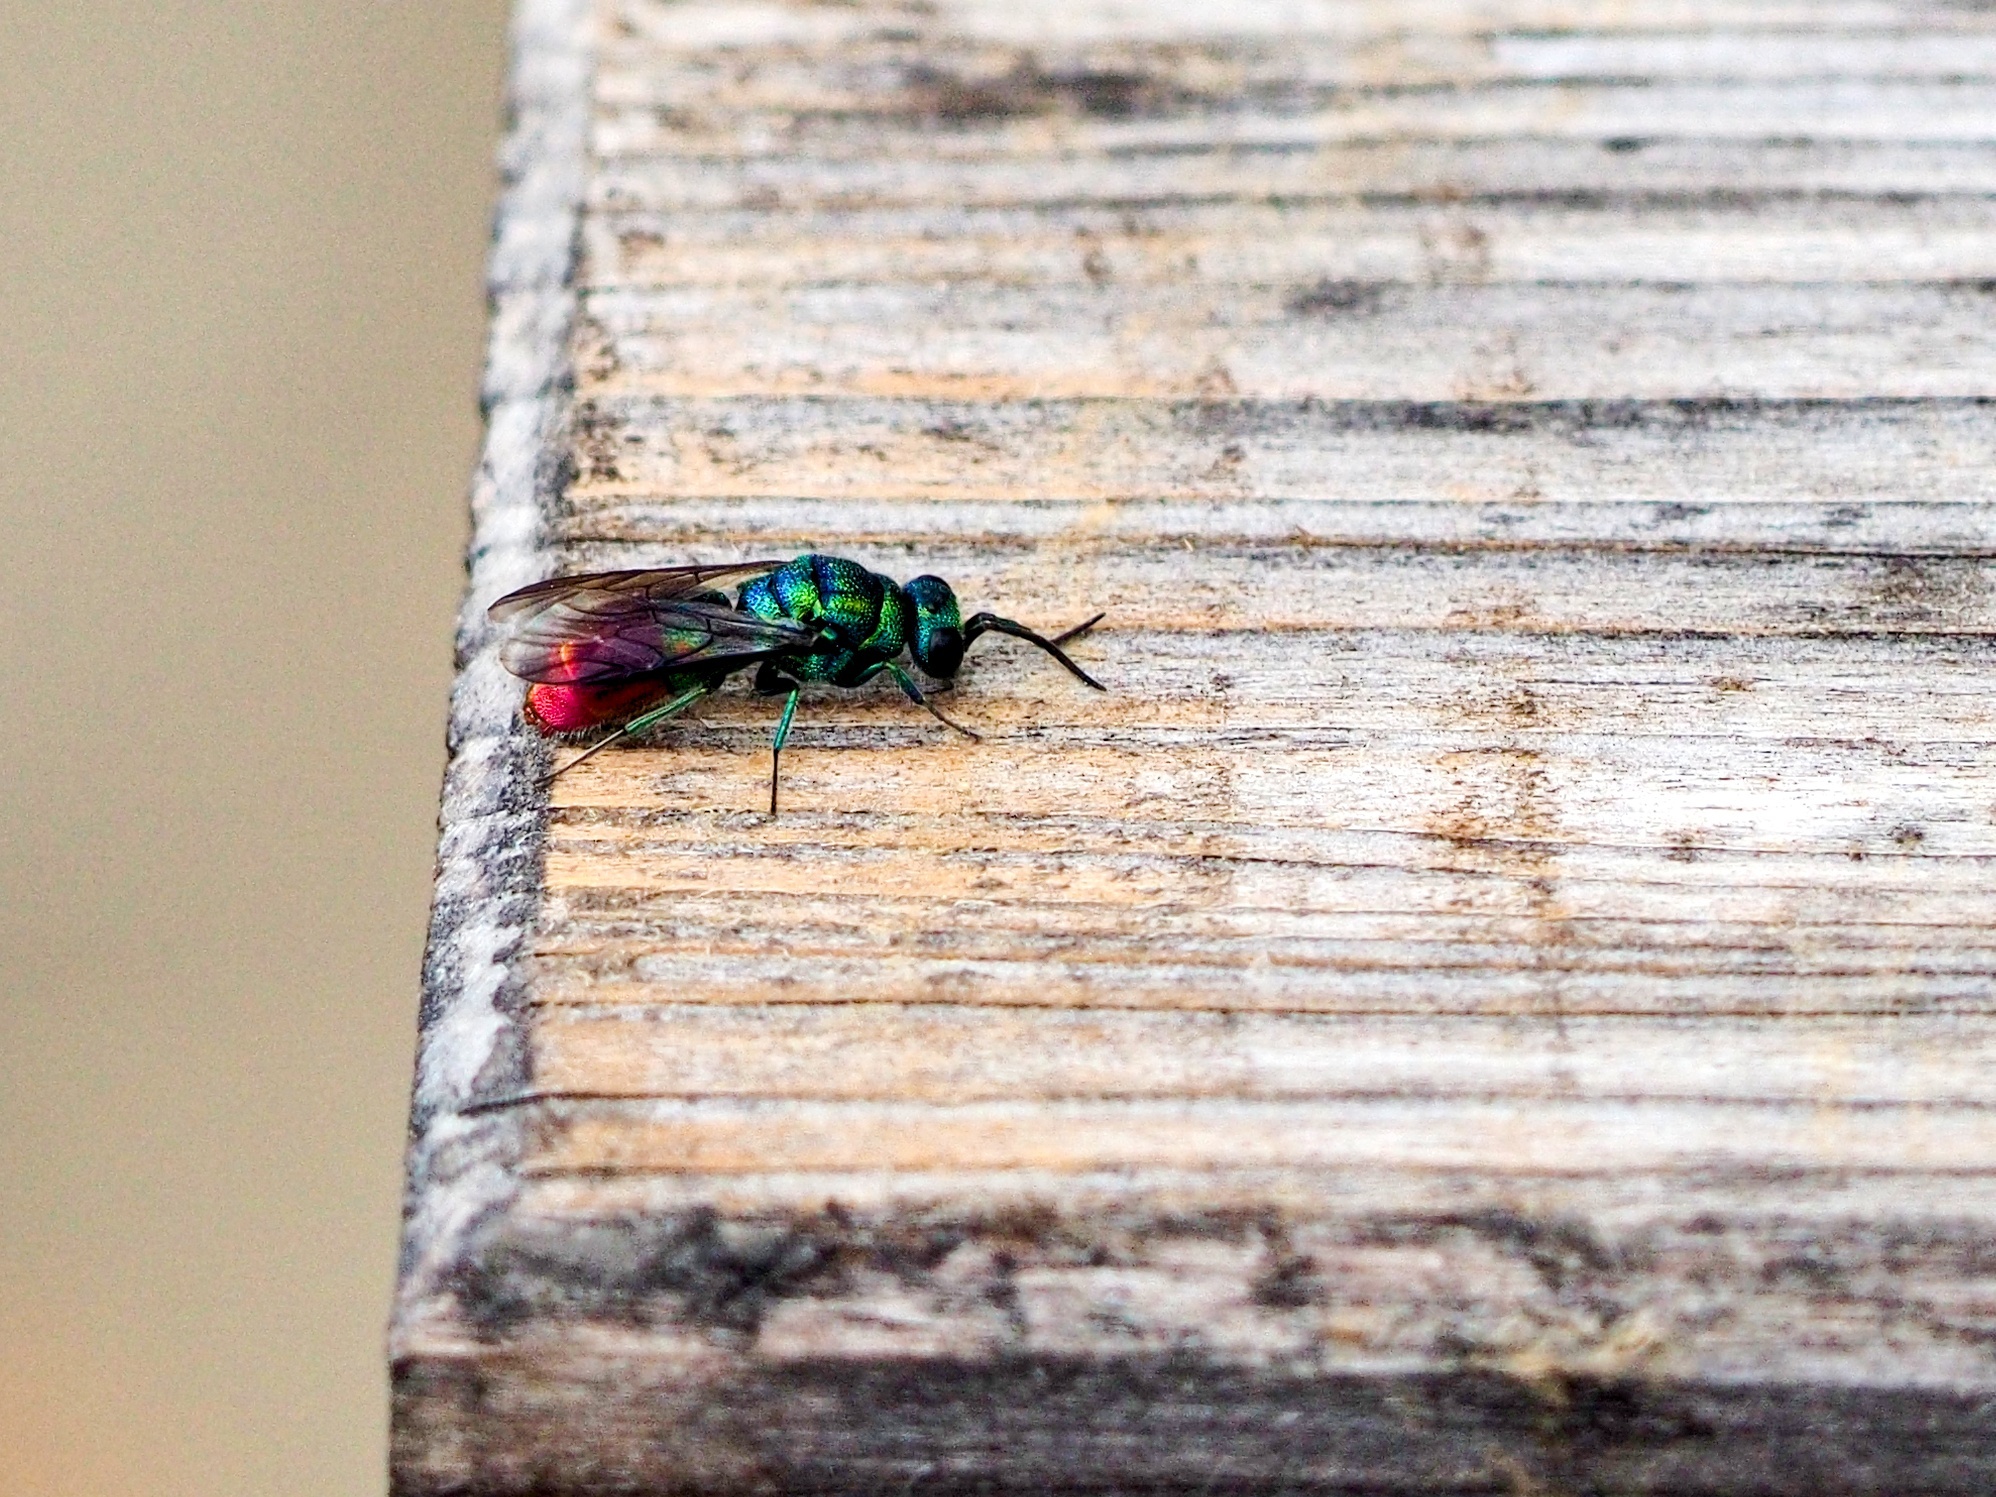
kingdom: Animalia
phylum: Arthropoda
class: Insecta
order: Hymenoptera
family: Chrysididae
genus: Chrysis
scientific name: Chrysis fulgida
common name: Shimmering ruby-tail
